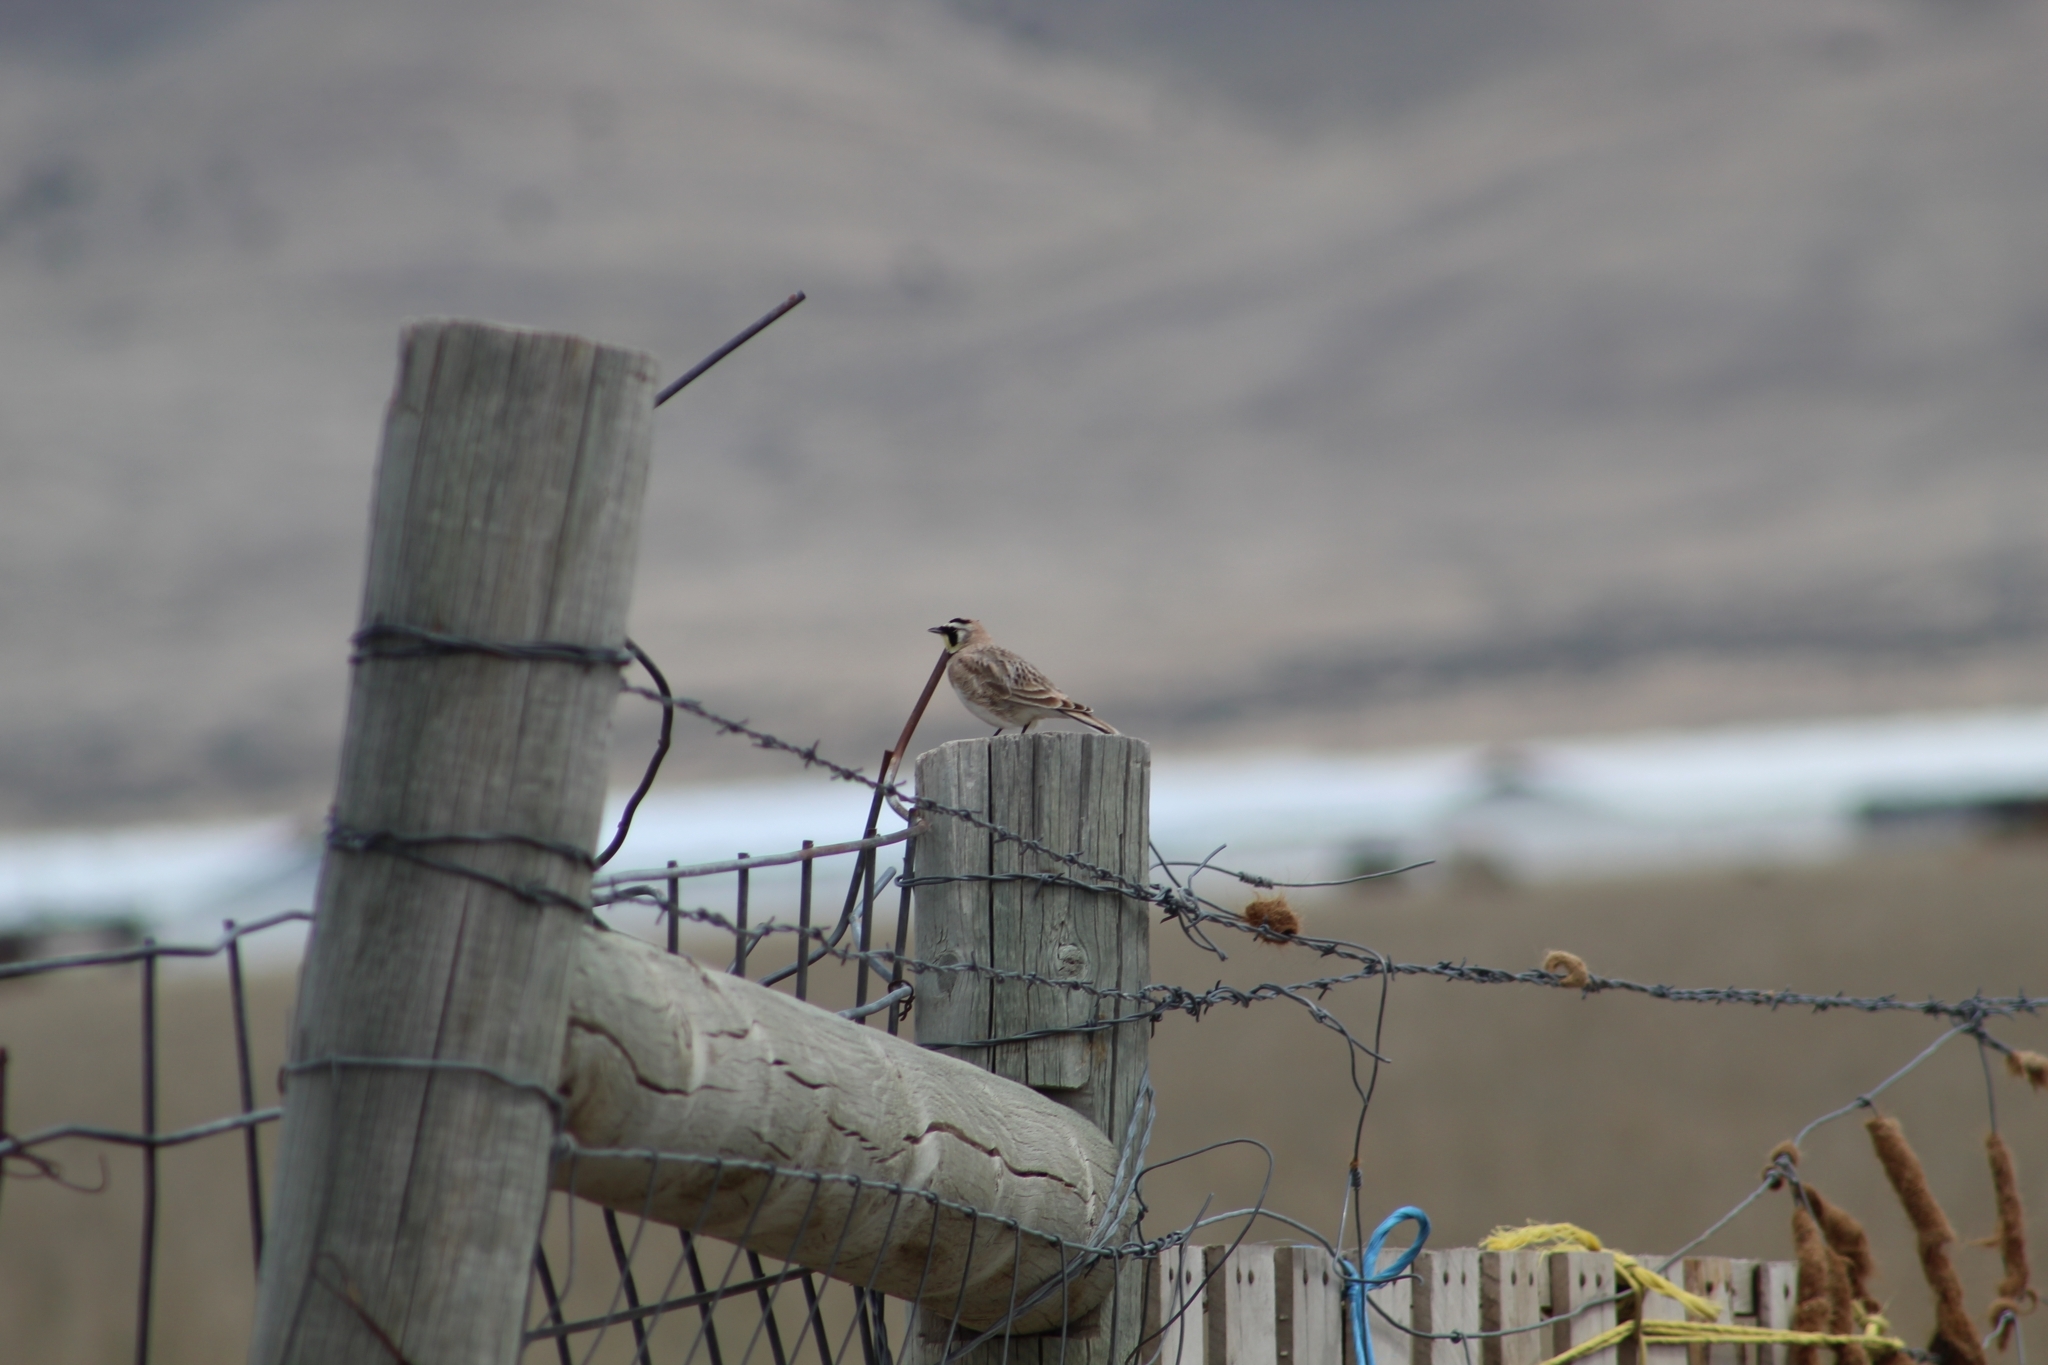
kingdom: Animalia
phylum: Chordata
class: Aves
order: Passeriformes
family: Alaudidae
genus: Eremophila
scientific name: Eremophila alpestris
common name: Horned lark
